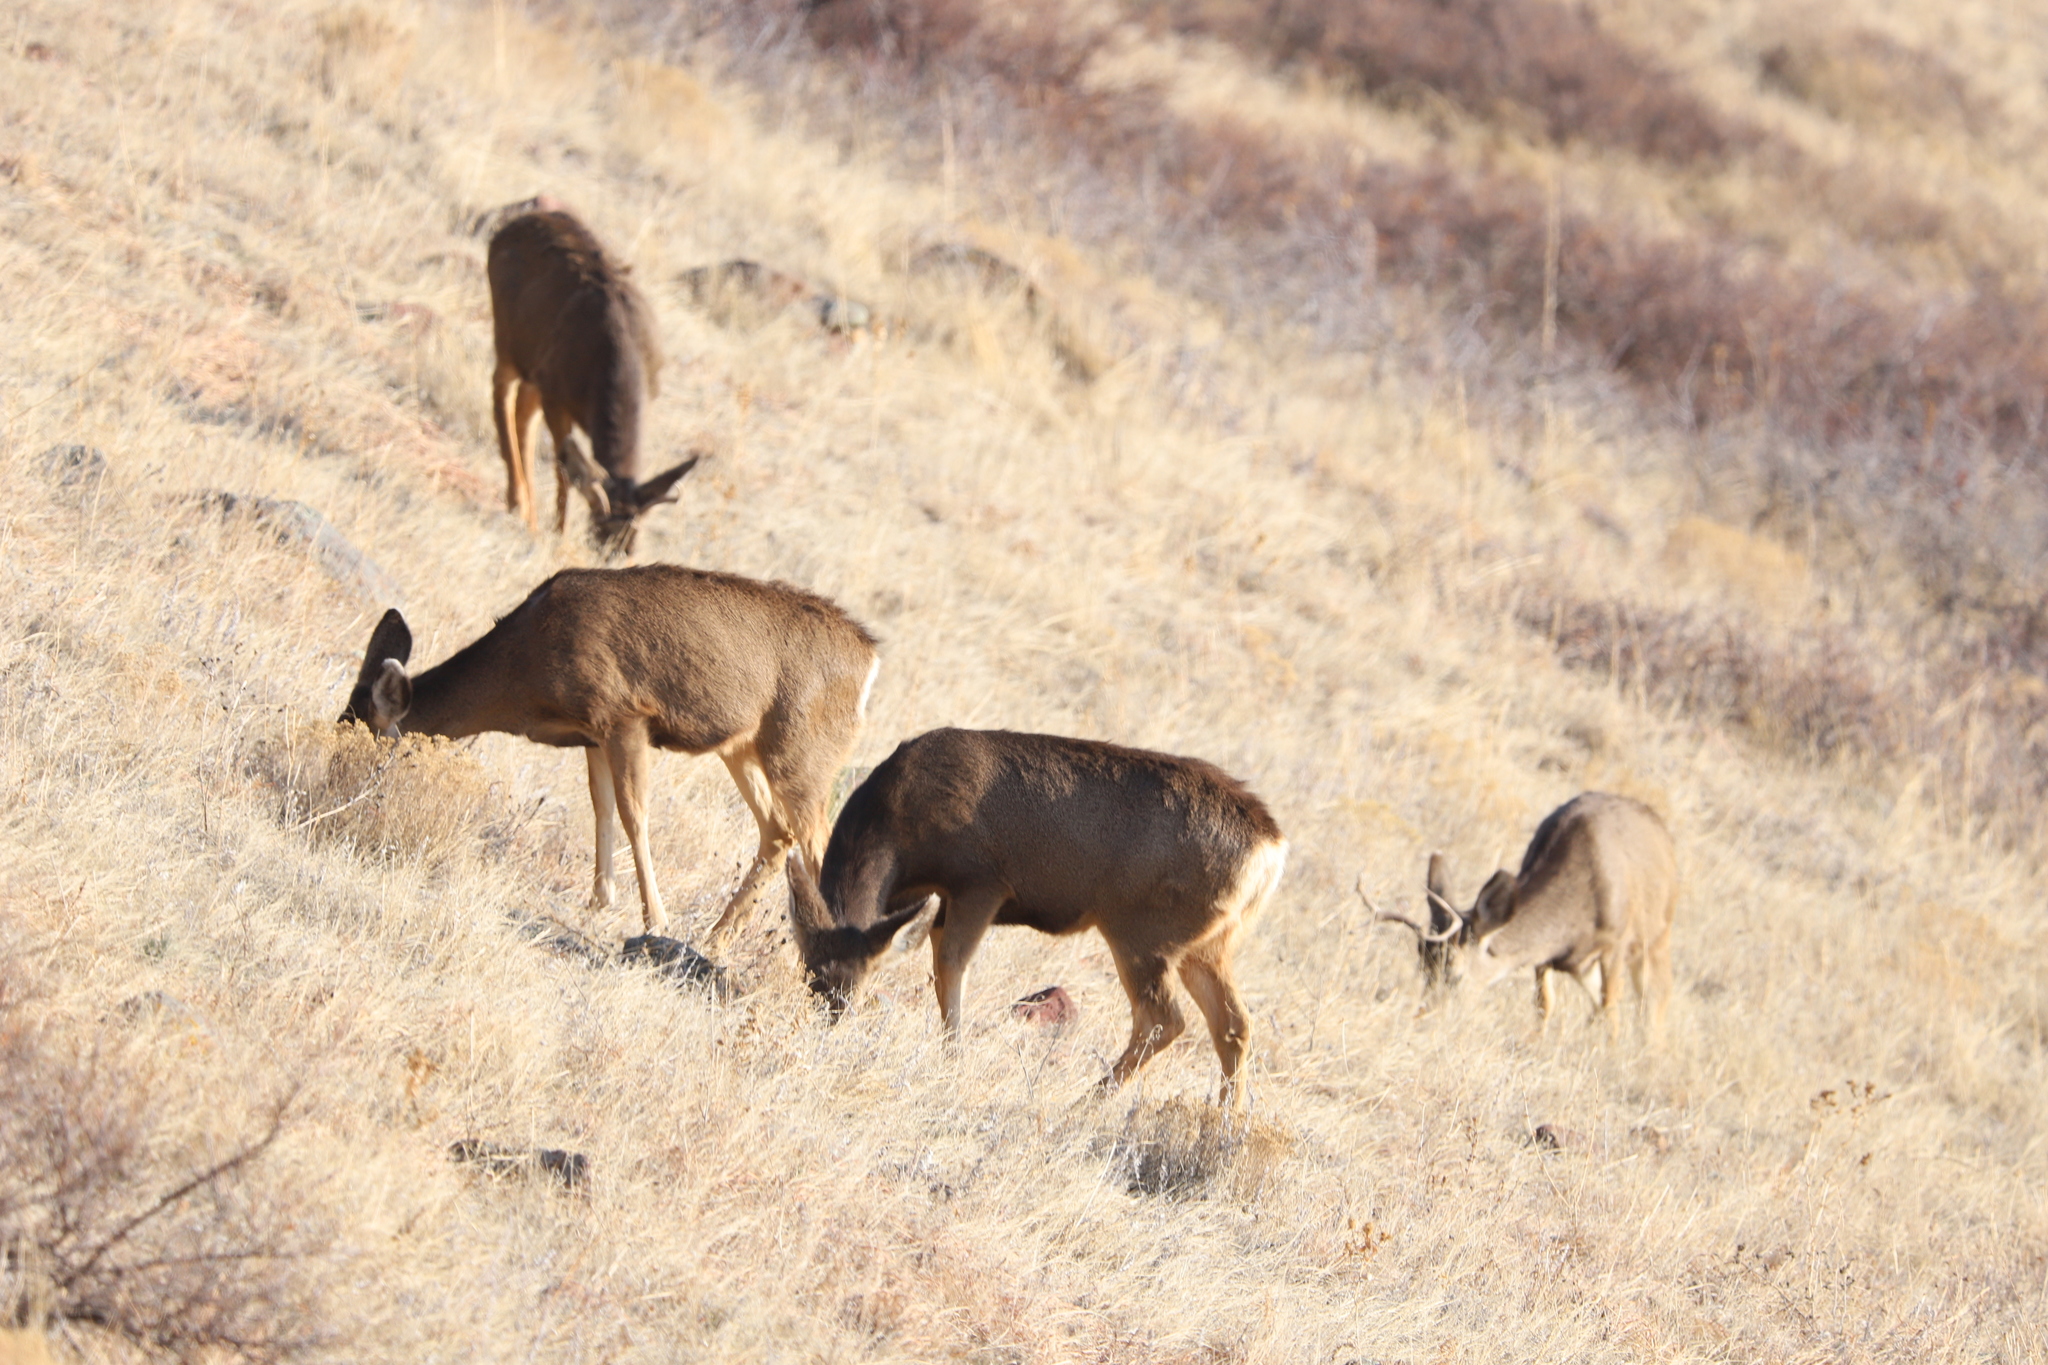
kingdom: Animalia
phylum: Chordata
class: Mammalia
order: Artiodactyla
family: Cervidae
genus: Odocoileus
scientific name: Odocoileus hemionus
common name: Mule deer
